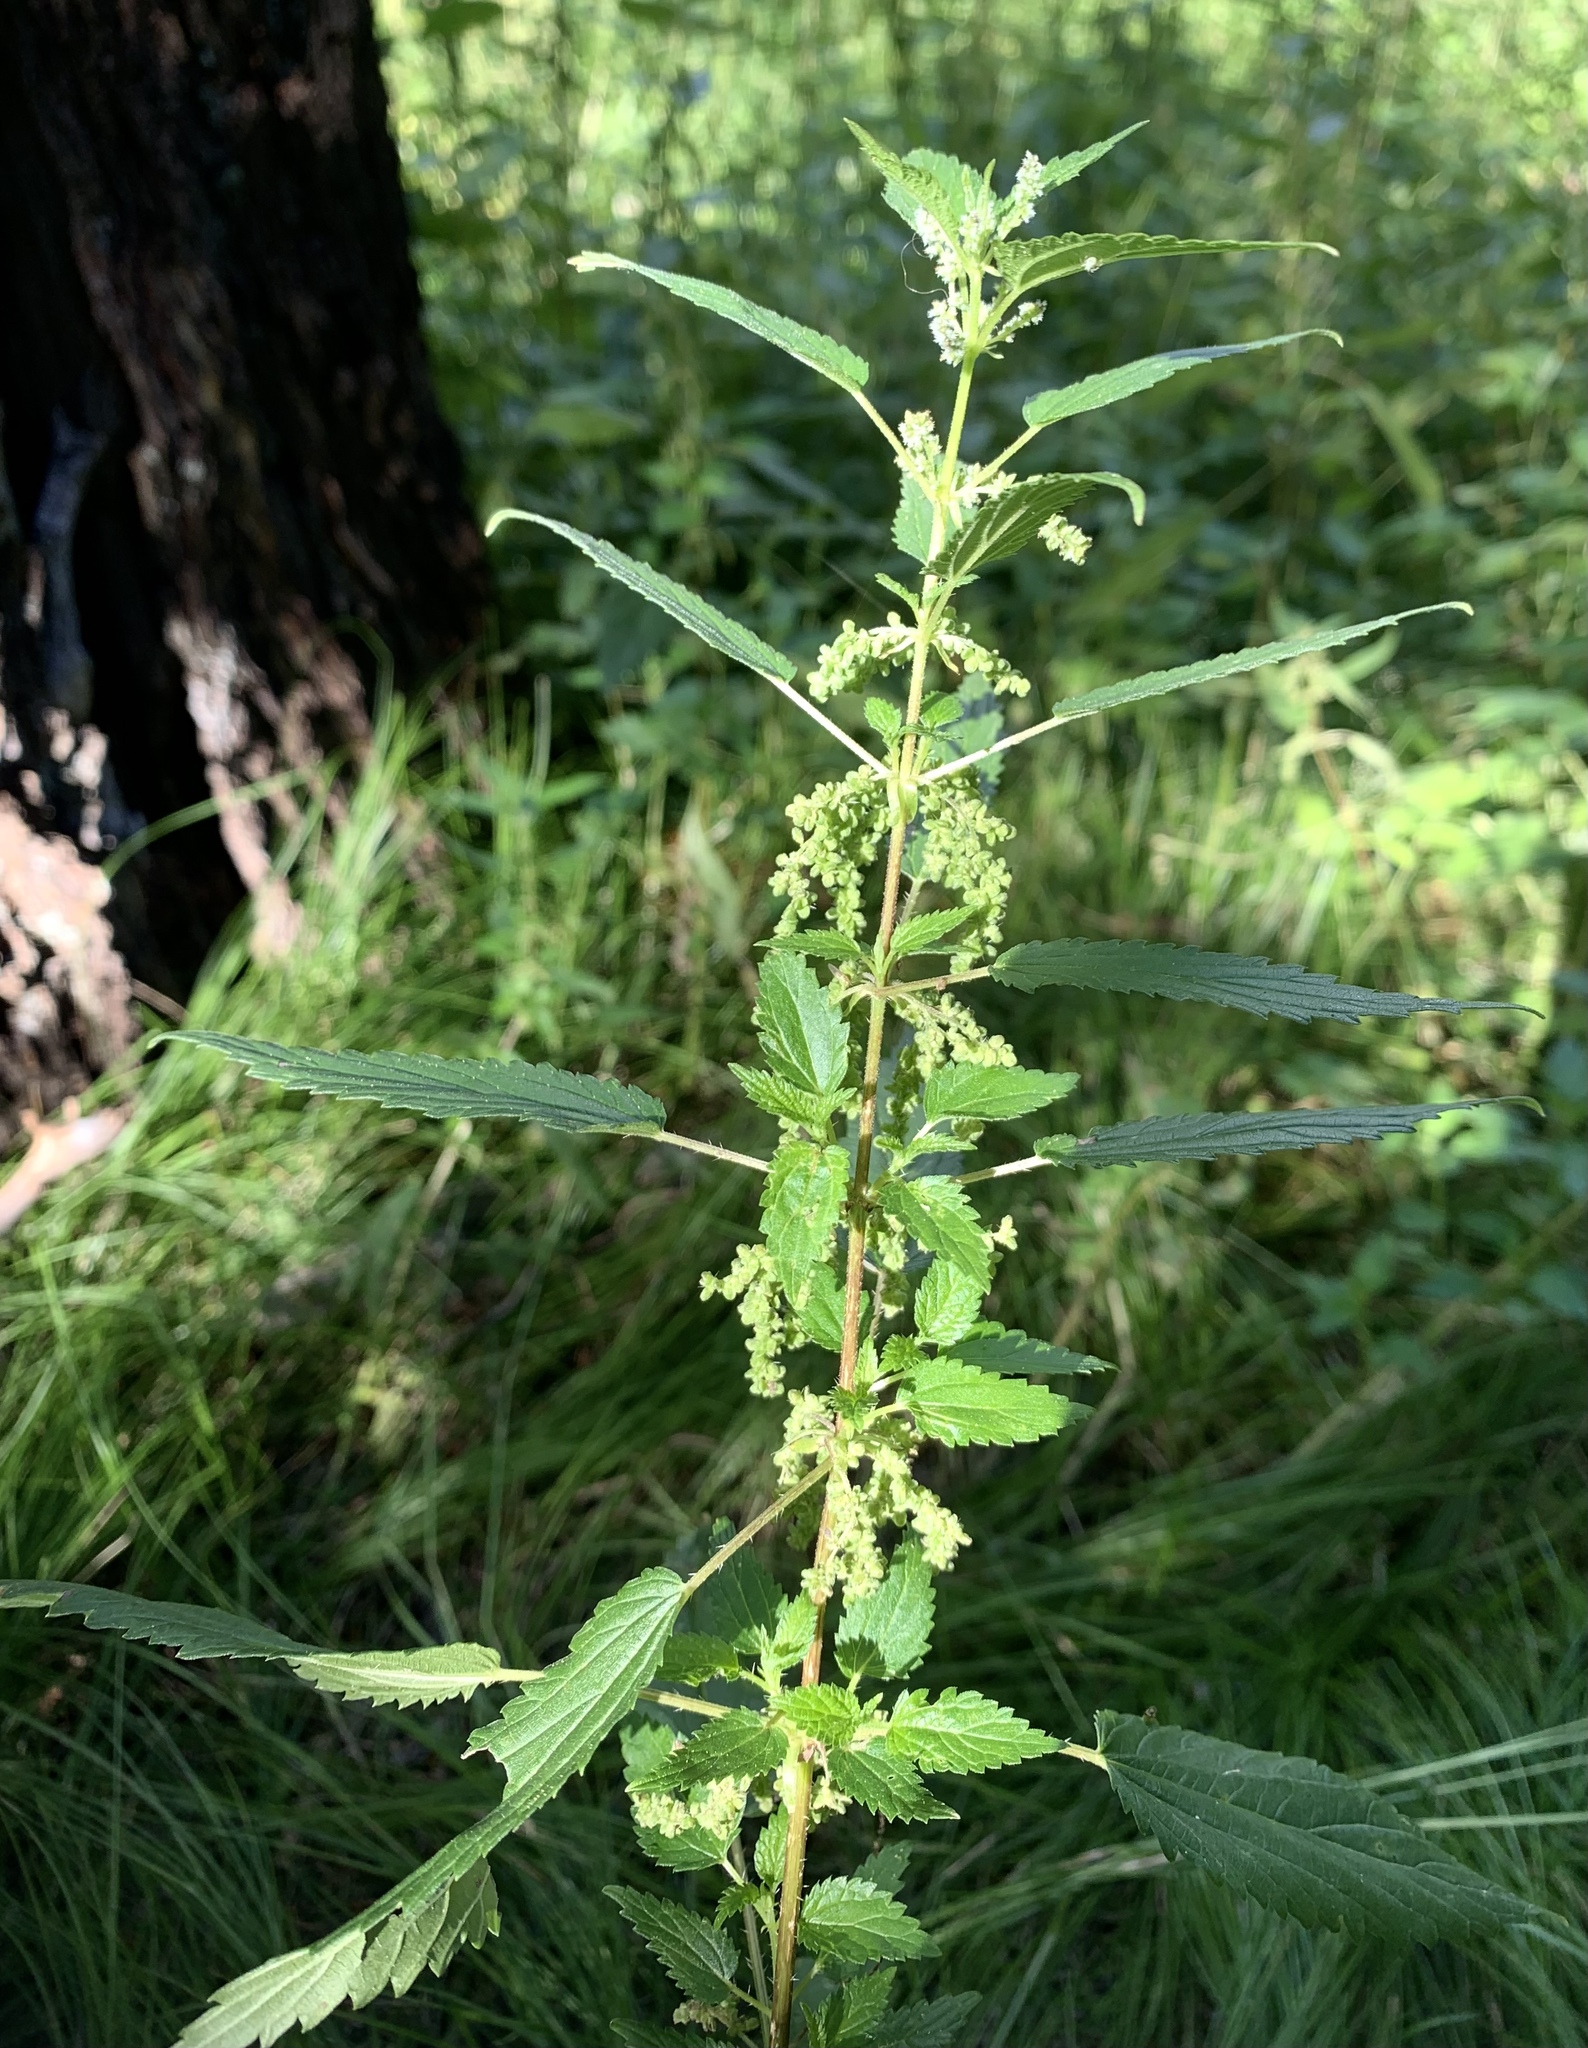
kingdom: Plantae
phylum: Tracheophyta
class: Magnoliopsida
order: Rosales
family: Urticaceae
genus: Urtica
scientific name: Urtica dioica
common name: Common nettle
